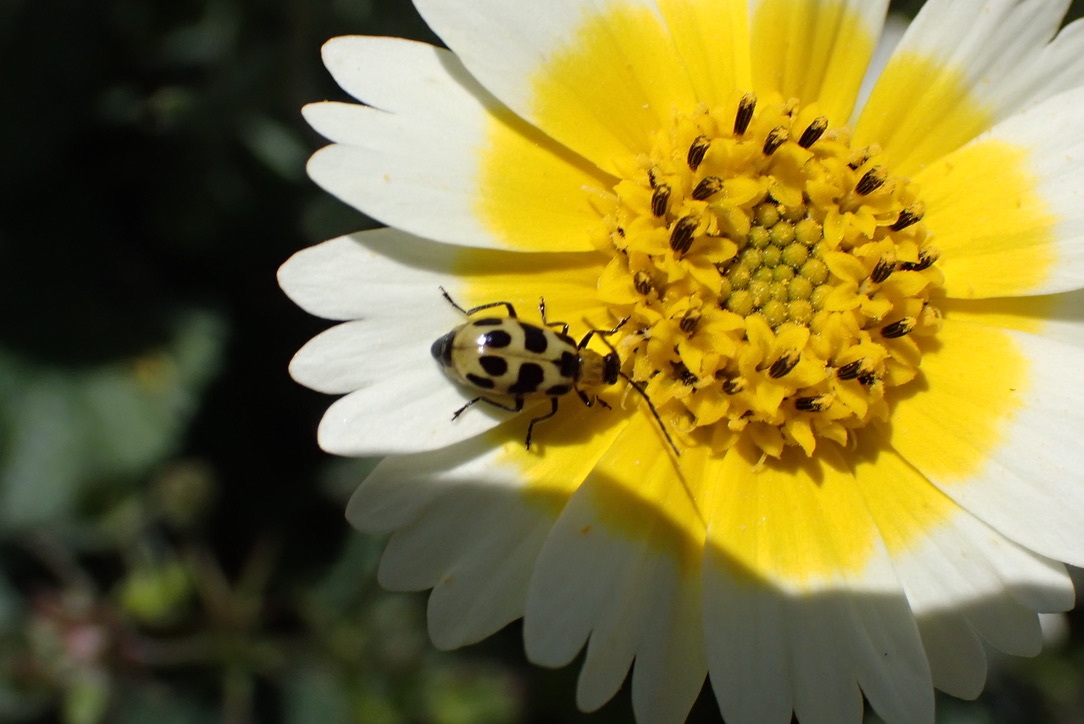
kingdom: Animalia
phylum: Arthropoda
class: Insecta
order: Coleoptera
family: Chrysomelidae
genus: Diabrotica
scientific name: Diabrotica undecimpunctata
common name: Spotted cucumber beetle
